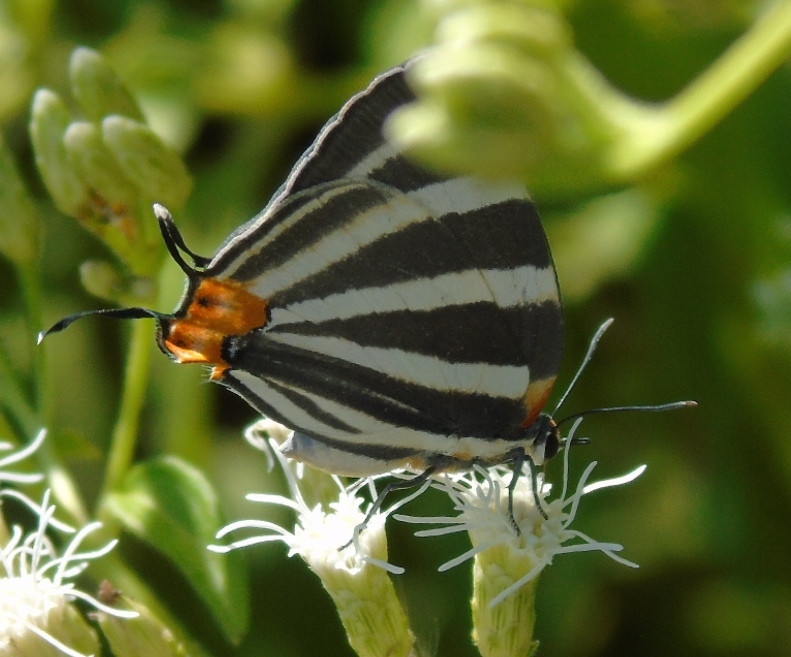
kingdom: Animalia
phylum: Arthropoda
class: Insecta
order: Lepidoptera
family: Lycaenidae
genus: Thecla
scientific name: Thecla bathildis
